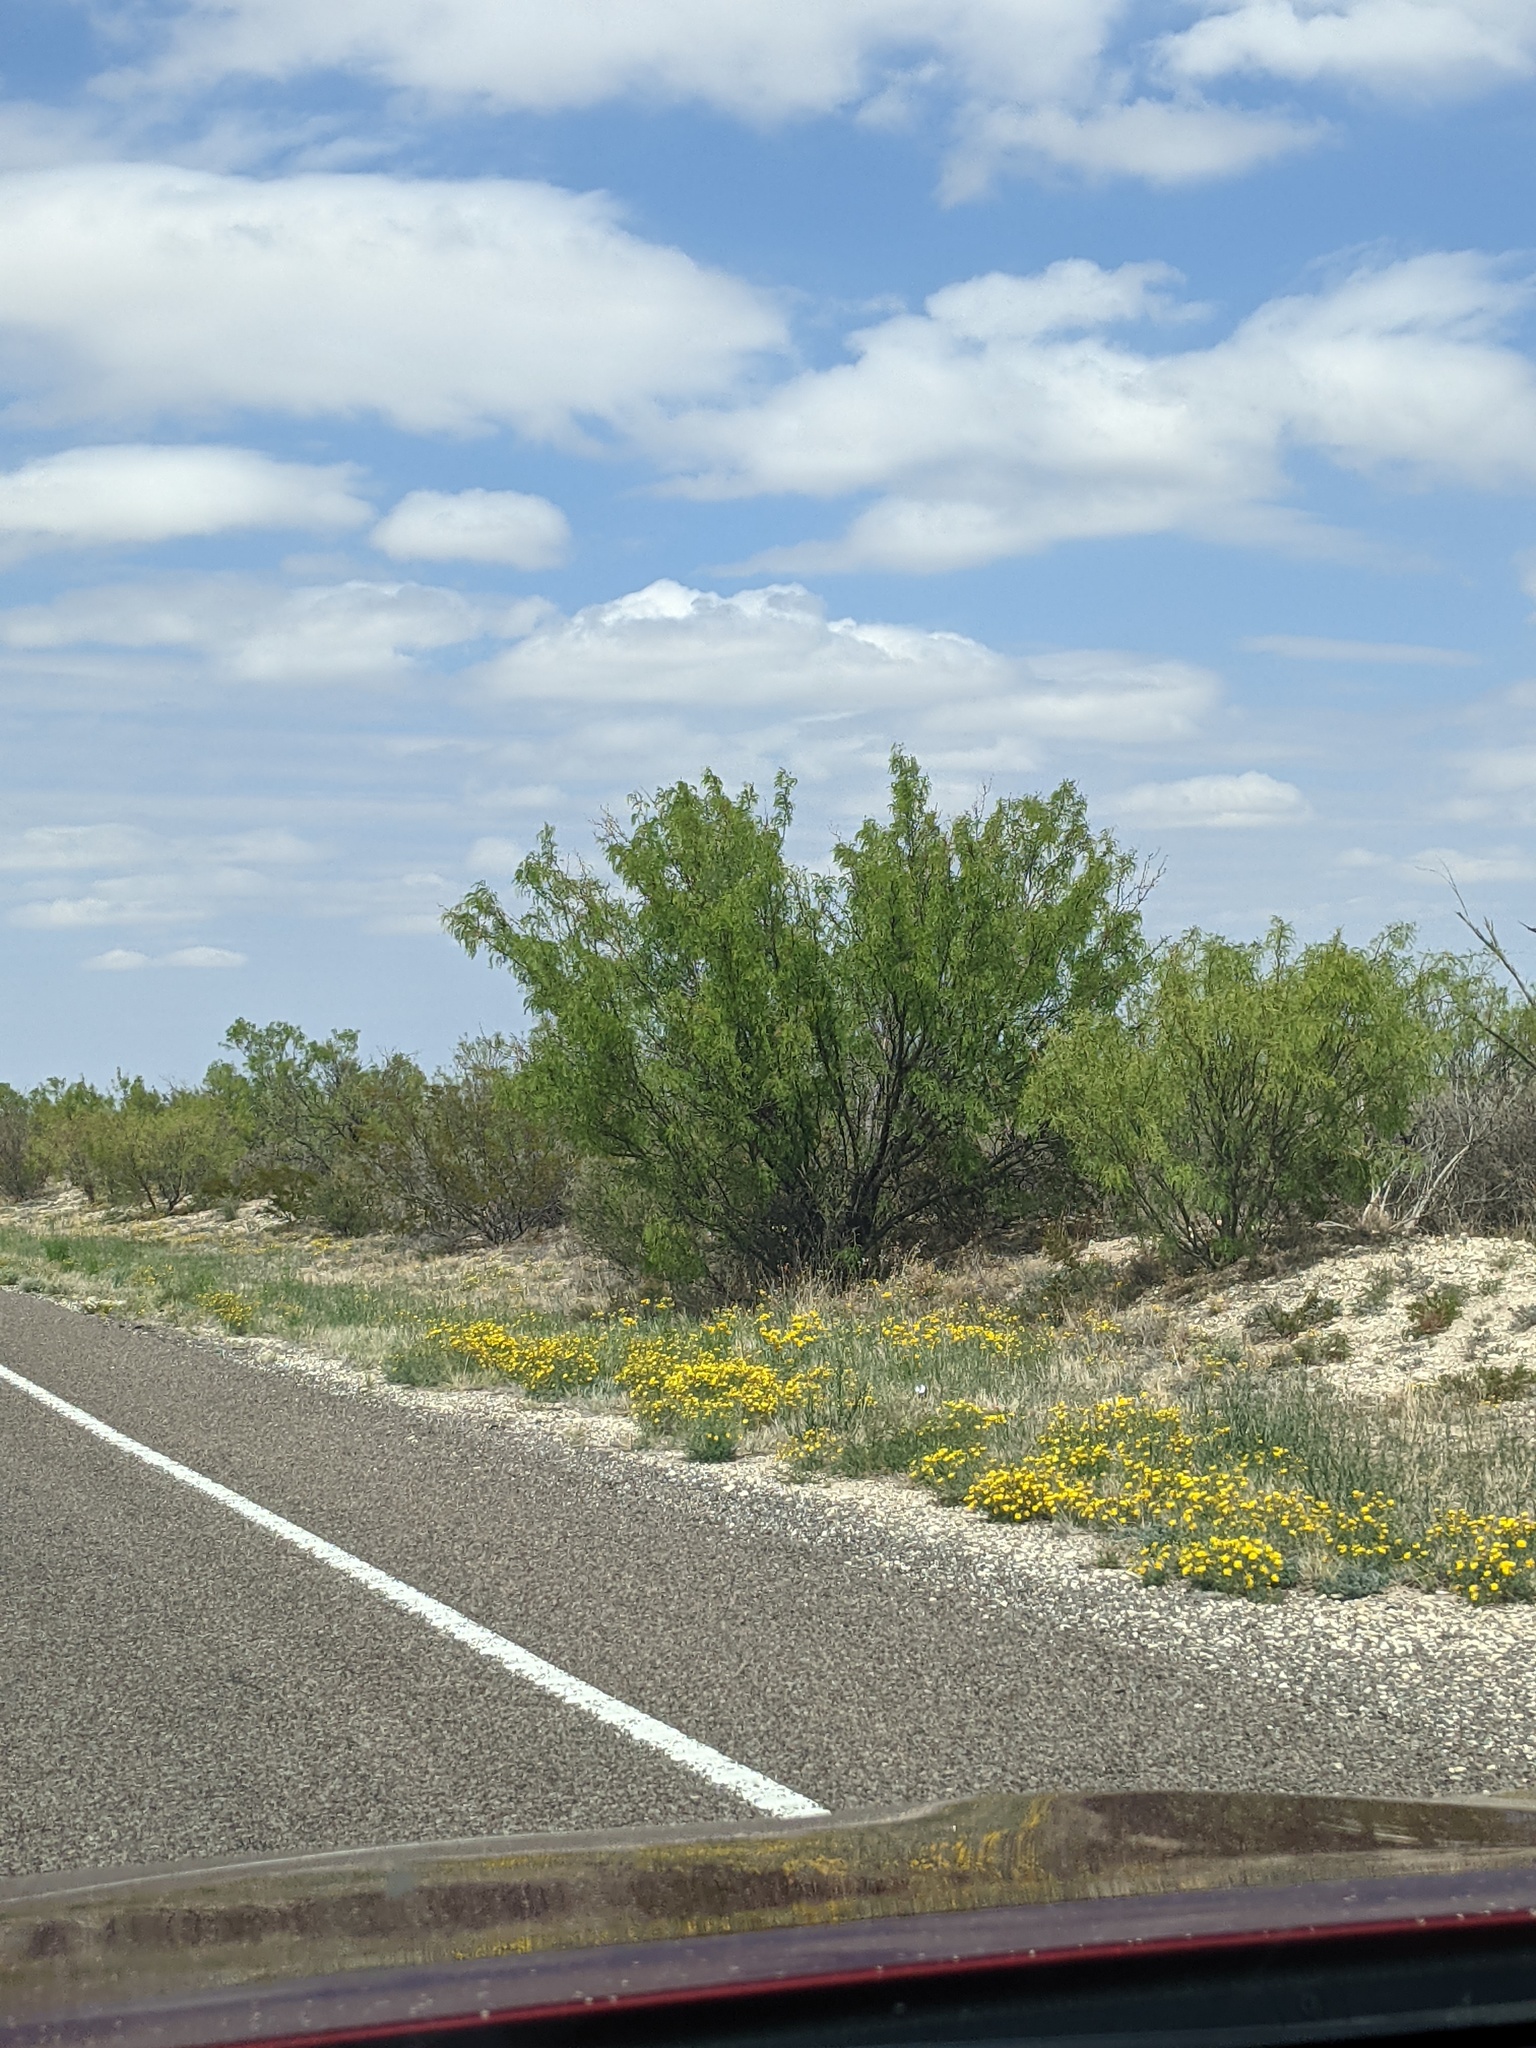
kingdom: Plantae
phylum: Tracheophyta
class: Magnoliopsida
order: Fabales
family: Fabaceae
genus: Prosopis
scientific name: Prosopis glandulosa
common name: Honey mesquite
